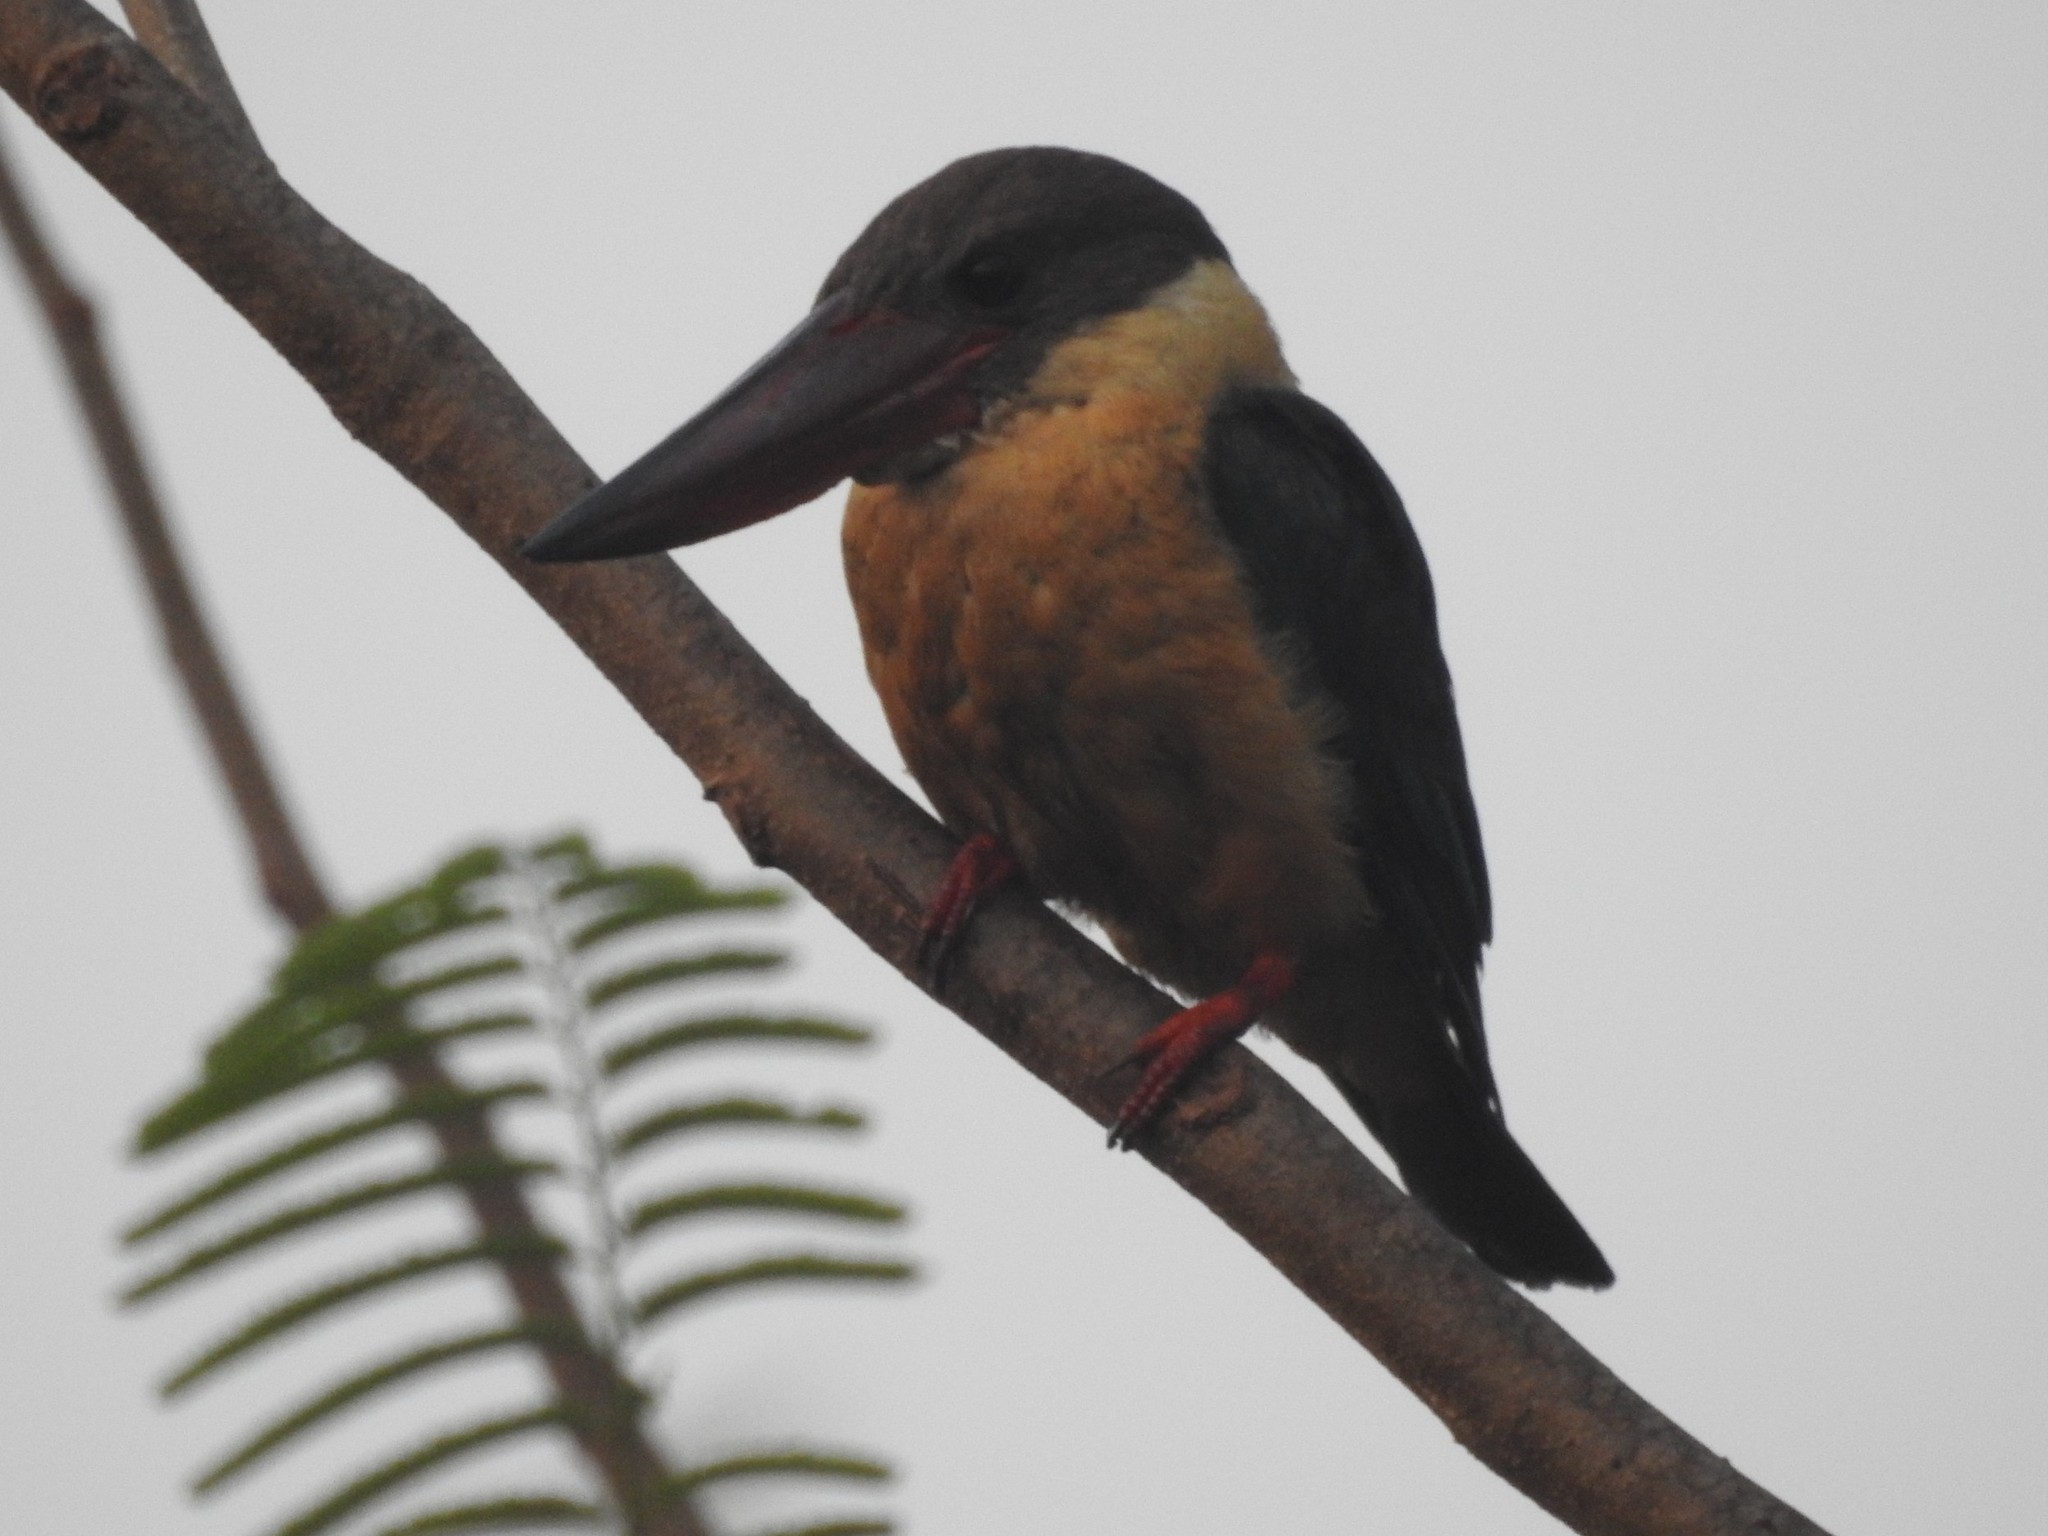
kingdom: Animalia
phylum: Chordata
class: Aves
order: Coraciiformes
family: Alcedinidae
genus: Pelargopsis
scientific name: Pelargopsis capensis
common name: Stork-billed kingfisher
